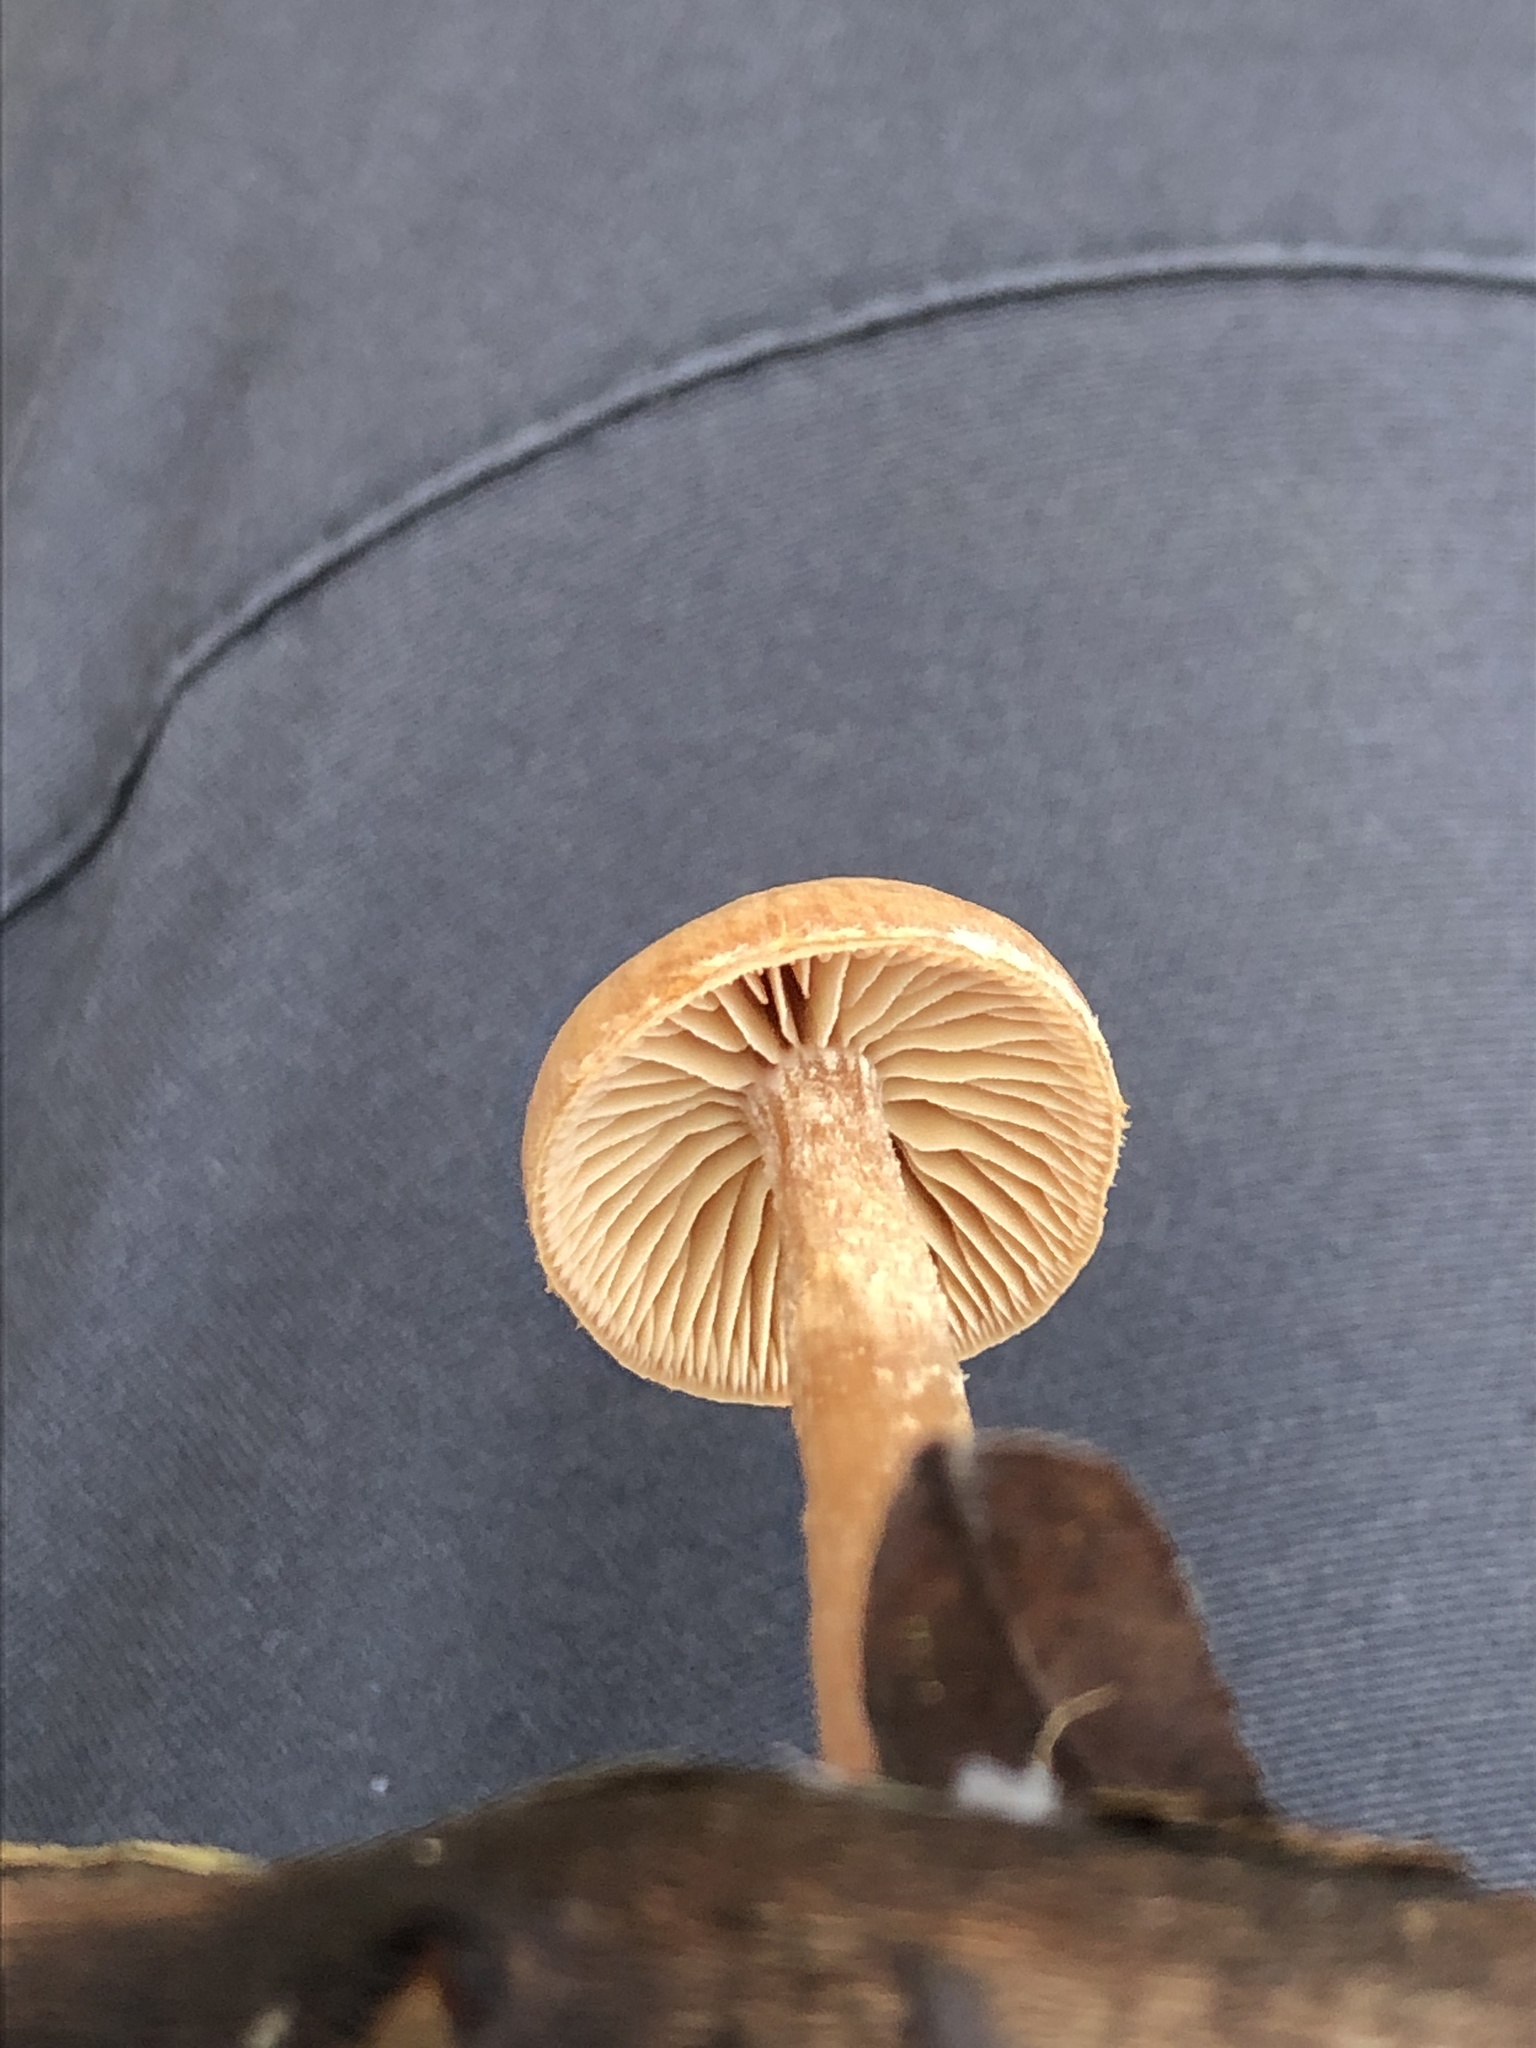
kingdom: Fungi
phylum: Basidiomycota
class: Agaricomycetes
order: Agaricales
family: Tubariaceae
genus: Tubaria
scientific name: Tubaria furfuracea
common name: Scurfy twiglet
